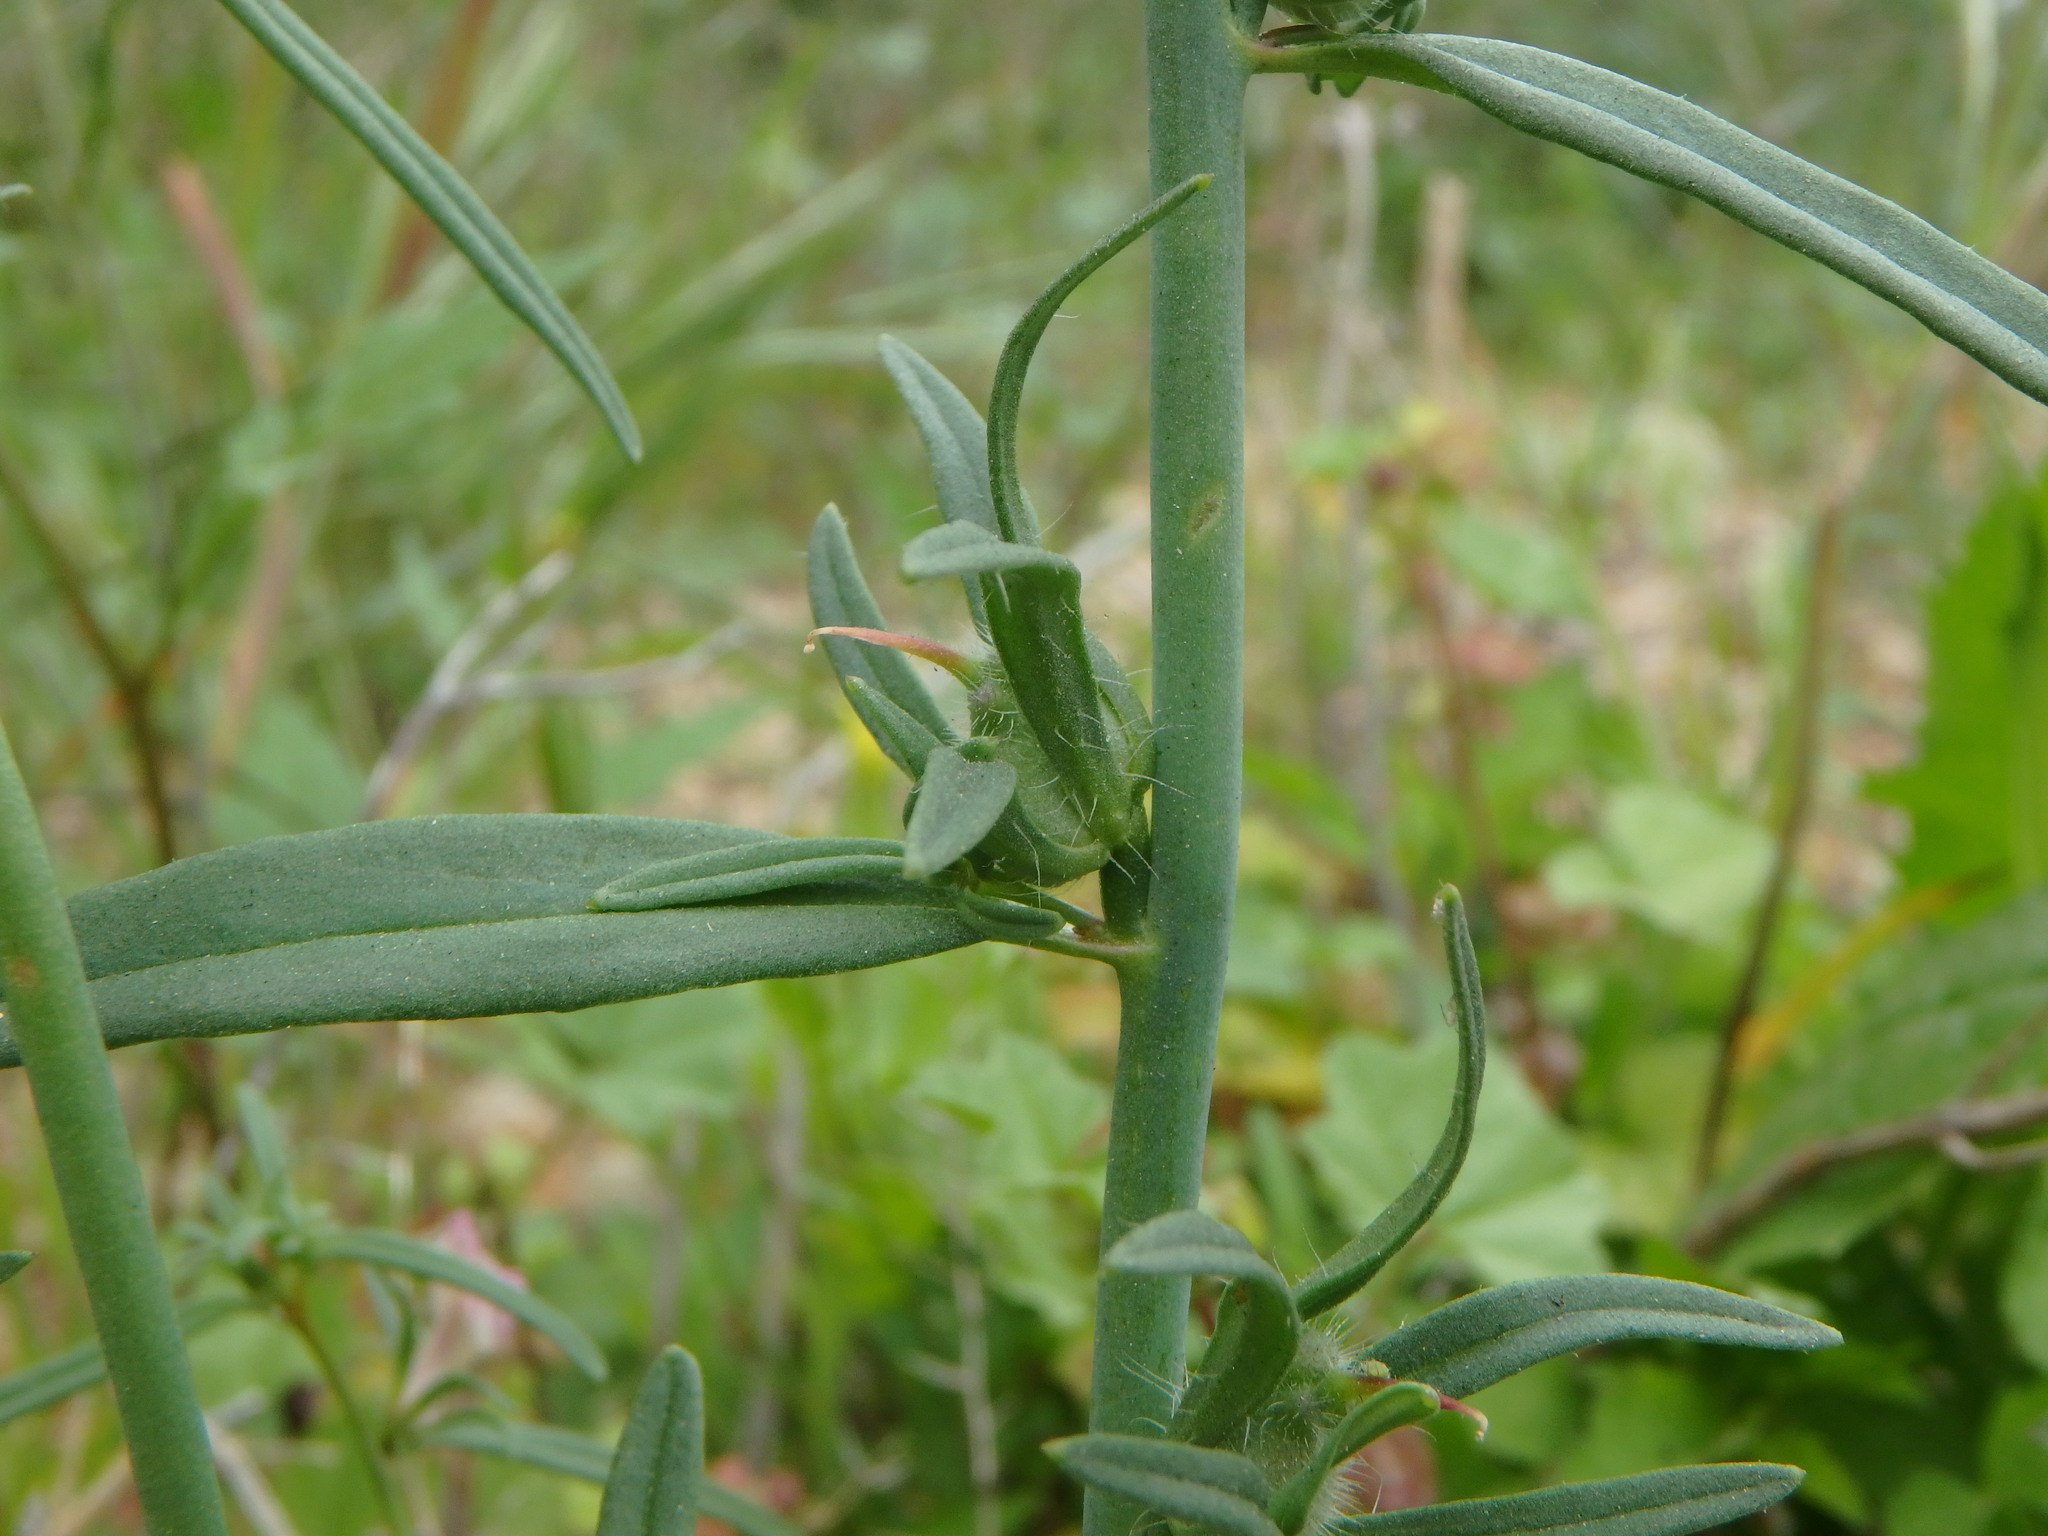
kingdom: Plantae
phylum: Tracheophyta
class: Magnoliopsida
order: Lamiales
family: Plantaginaceae
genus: Misopates
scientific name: Misopates orontium
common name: Weasel's-snout
